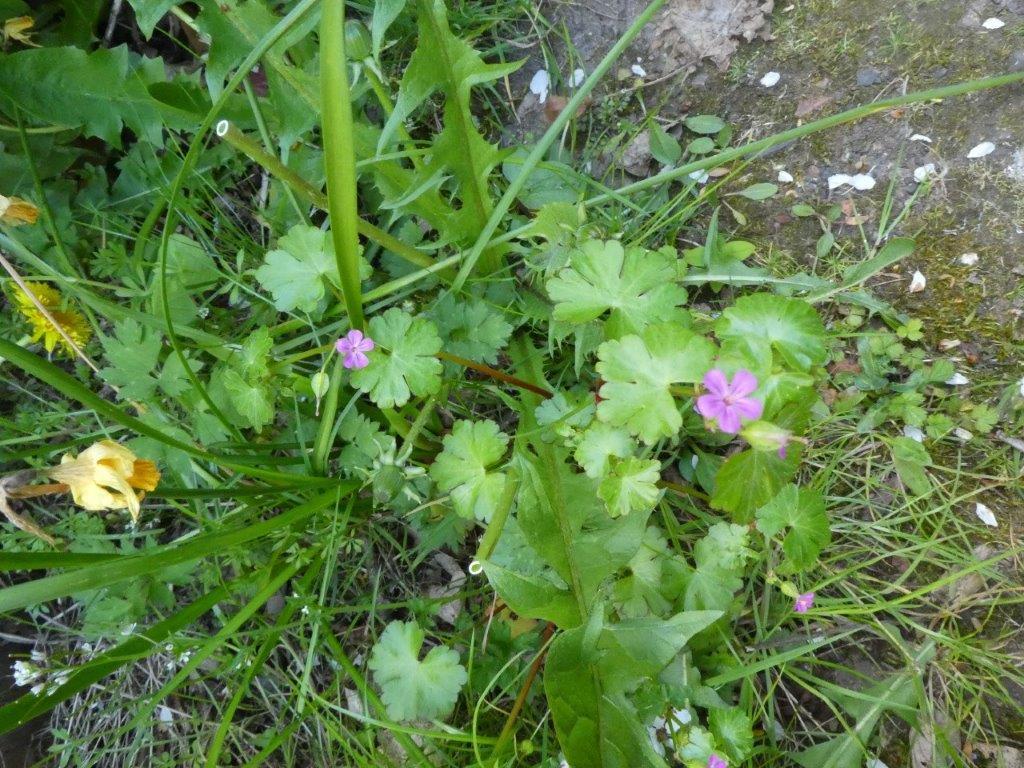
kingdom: Plantae
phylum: Tracheophyta
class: Magnoliopsida
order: Geraniales
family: Geraniaceae
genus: Geranium
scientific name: Geranium lucidum
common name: Shining crane's-bill
